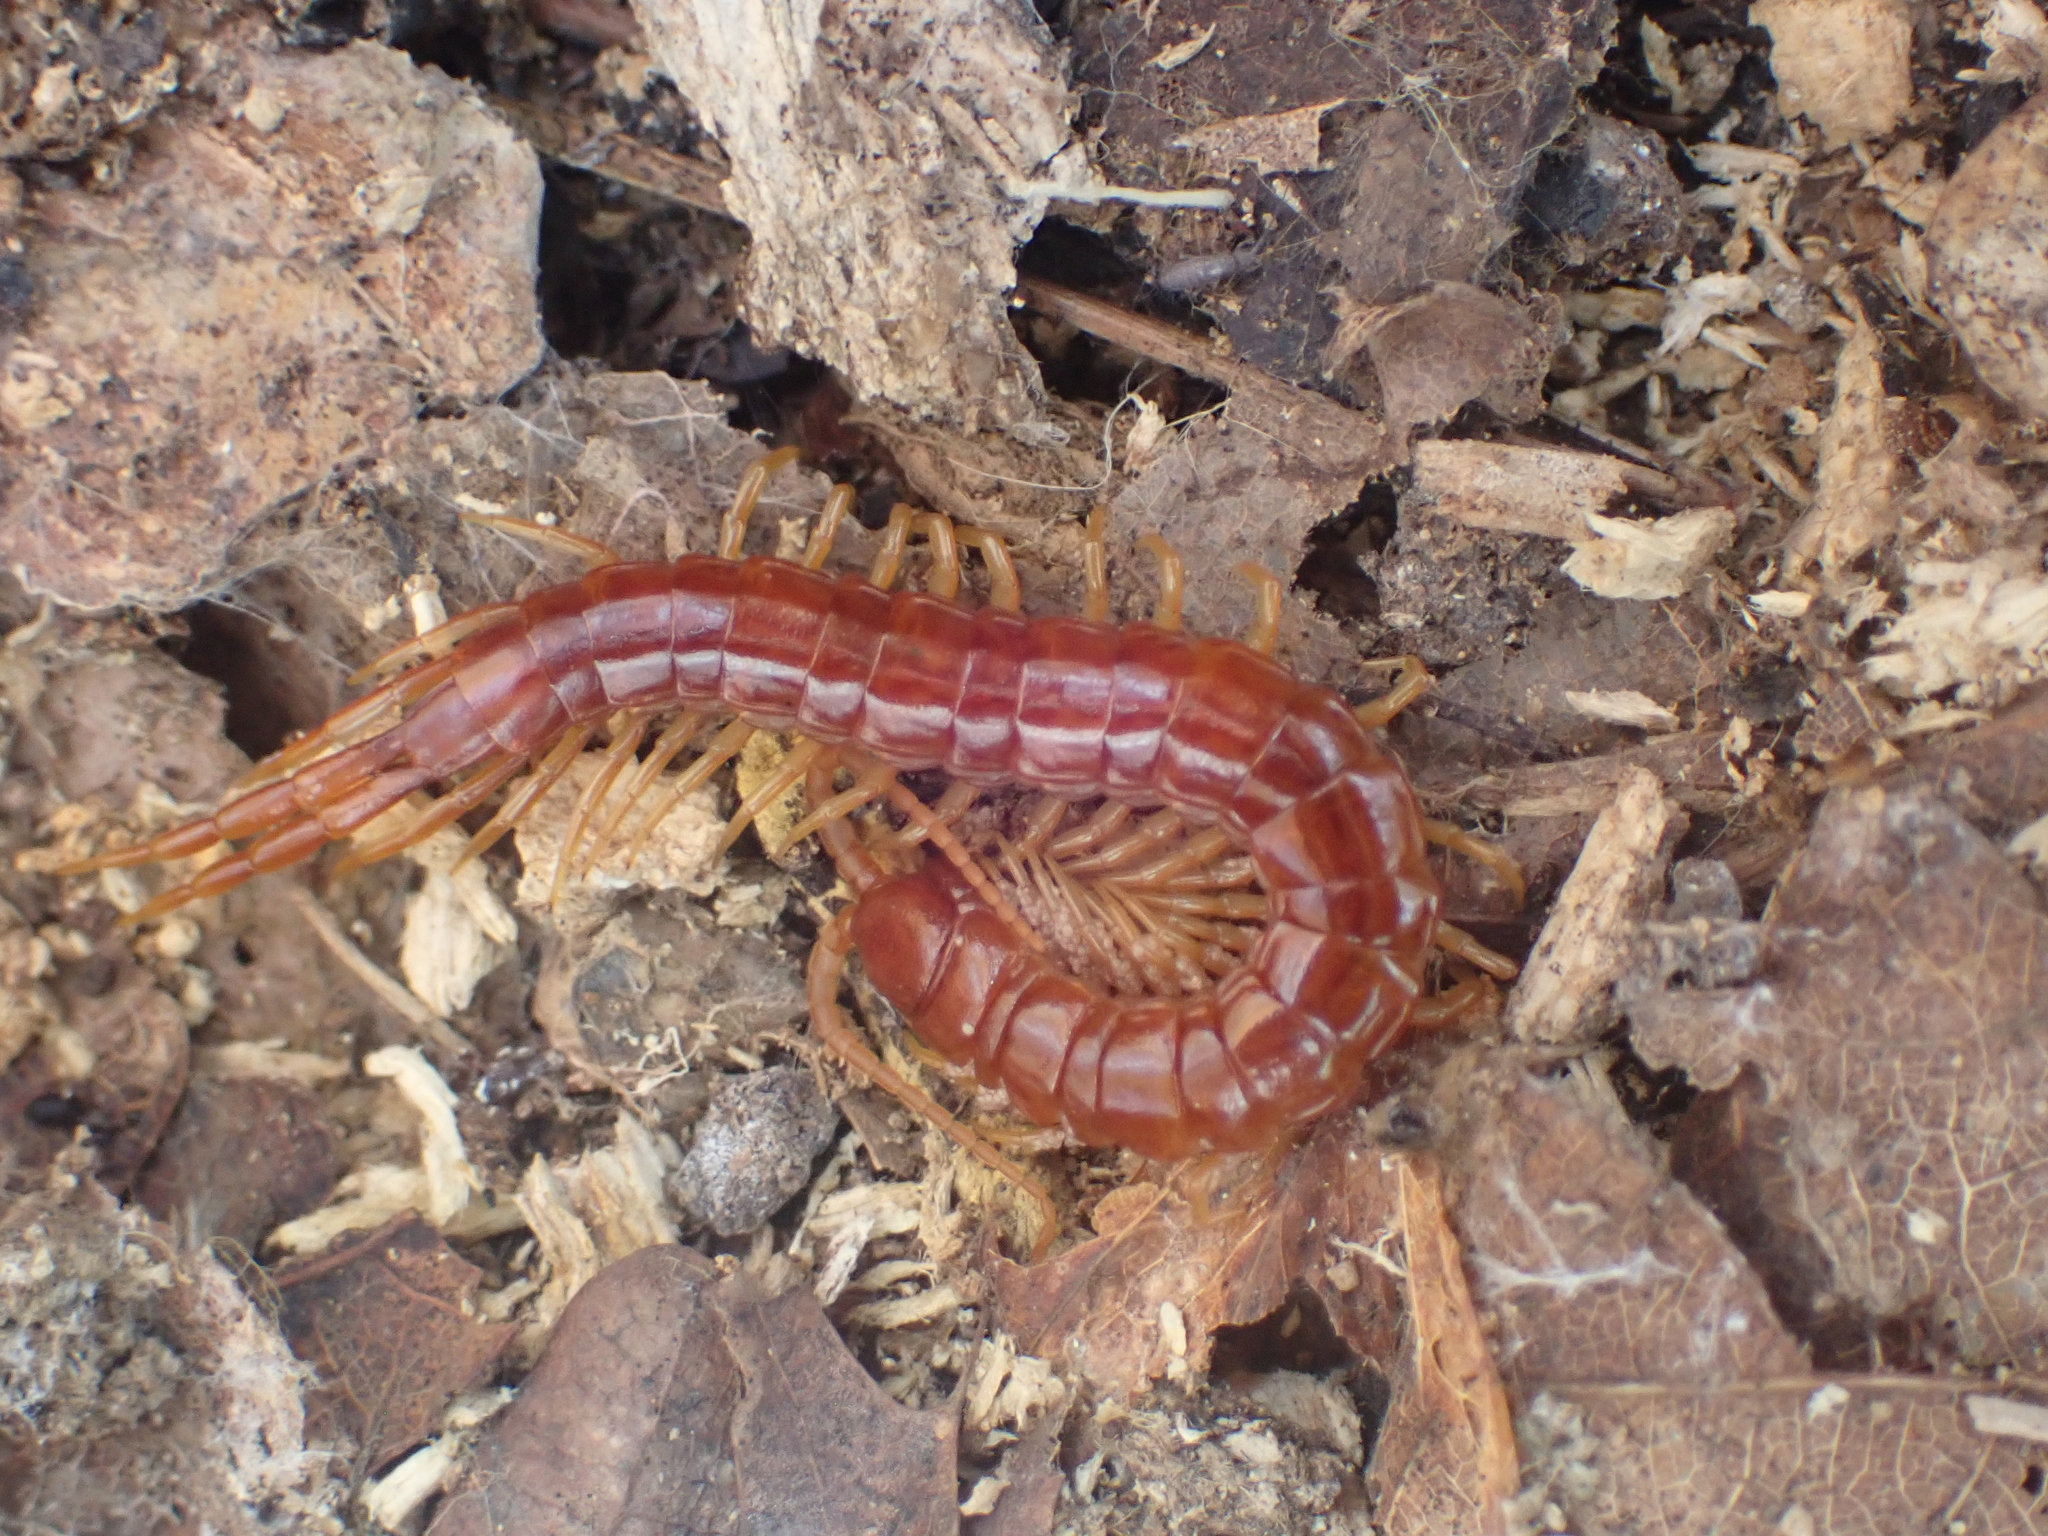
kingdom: Animalia
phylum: Arthropoda
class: Chilopoda
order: Scolopendromorpha
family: Scolopocryptopidae
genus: Scolopocryptops
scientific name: Scolopocryptops sexspinosus
